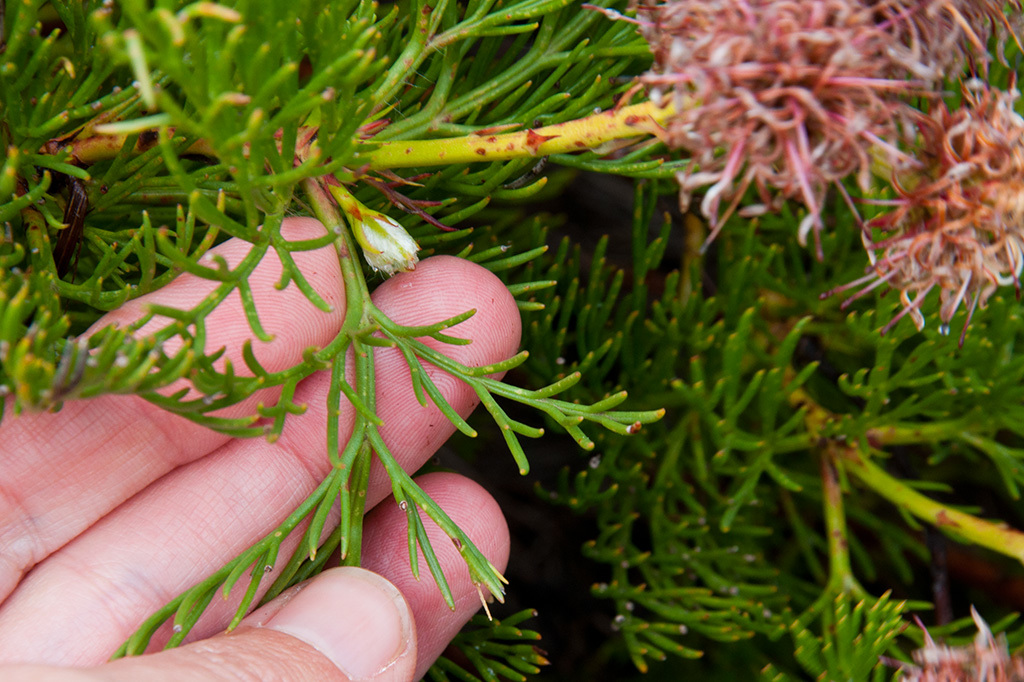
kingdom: Plantae
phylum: Tracheophyta
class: Magnoliopsida
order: Proteales
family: Proteaceae
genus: Serruria
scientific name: Serruria elongata
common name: Long-stalk spiderhead
